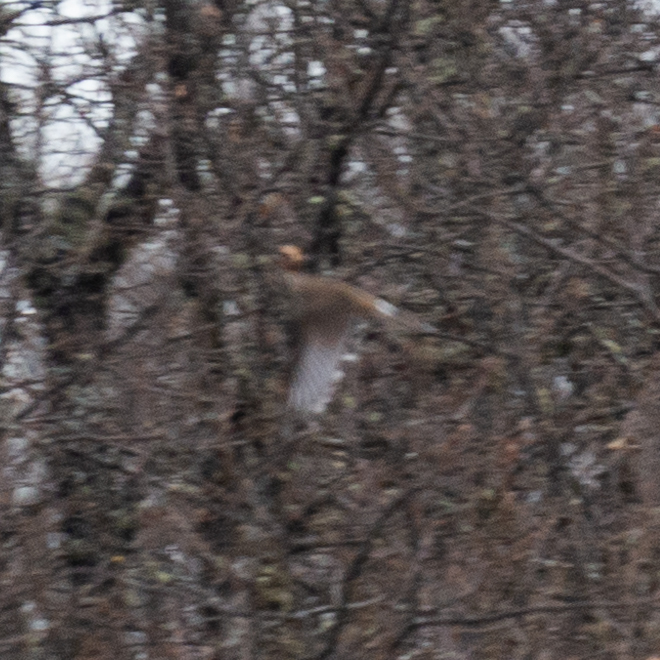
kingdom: Animalia
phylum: Chordata
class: Aves
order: Passeriformes
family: Turdidae
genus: Turdus
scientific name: Turdus viscivorus
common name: Mistle thrush
